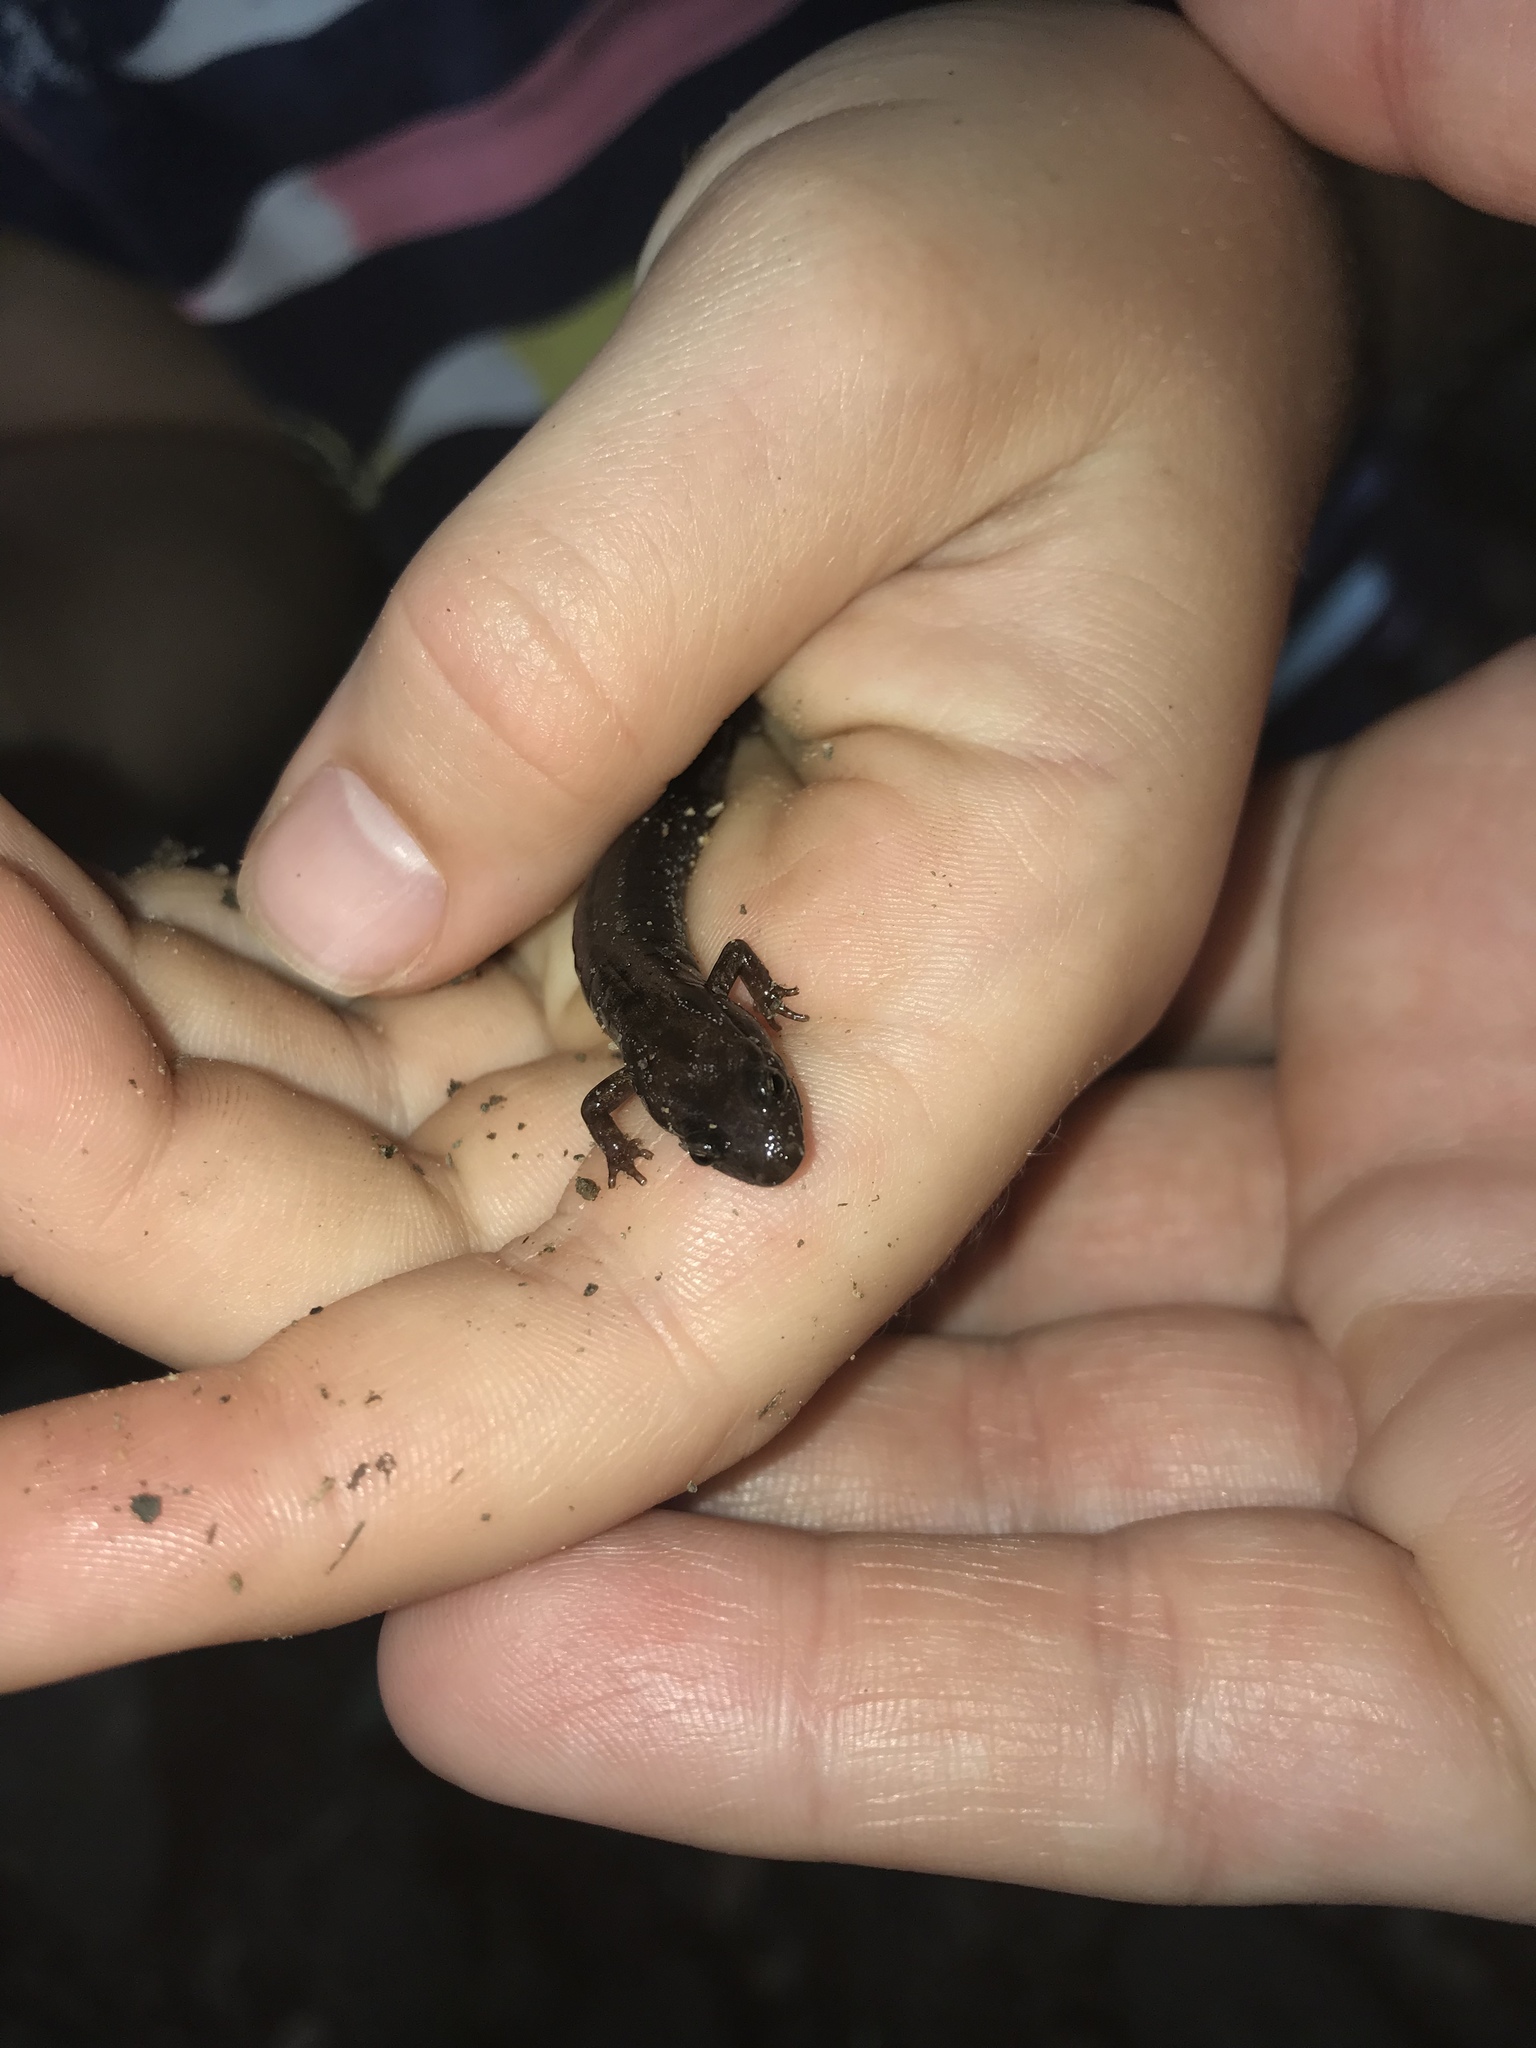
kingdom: Animalia
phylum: Chordata
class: Amphibia
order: Caudata
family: Plethodontidae
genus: Desmognathus
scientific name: Desmognathus ochrophaeus
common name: Allegheny mountain dusky salamander
